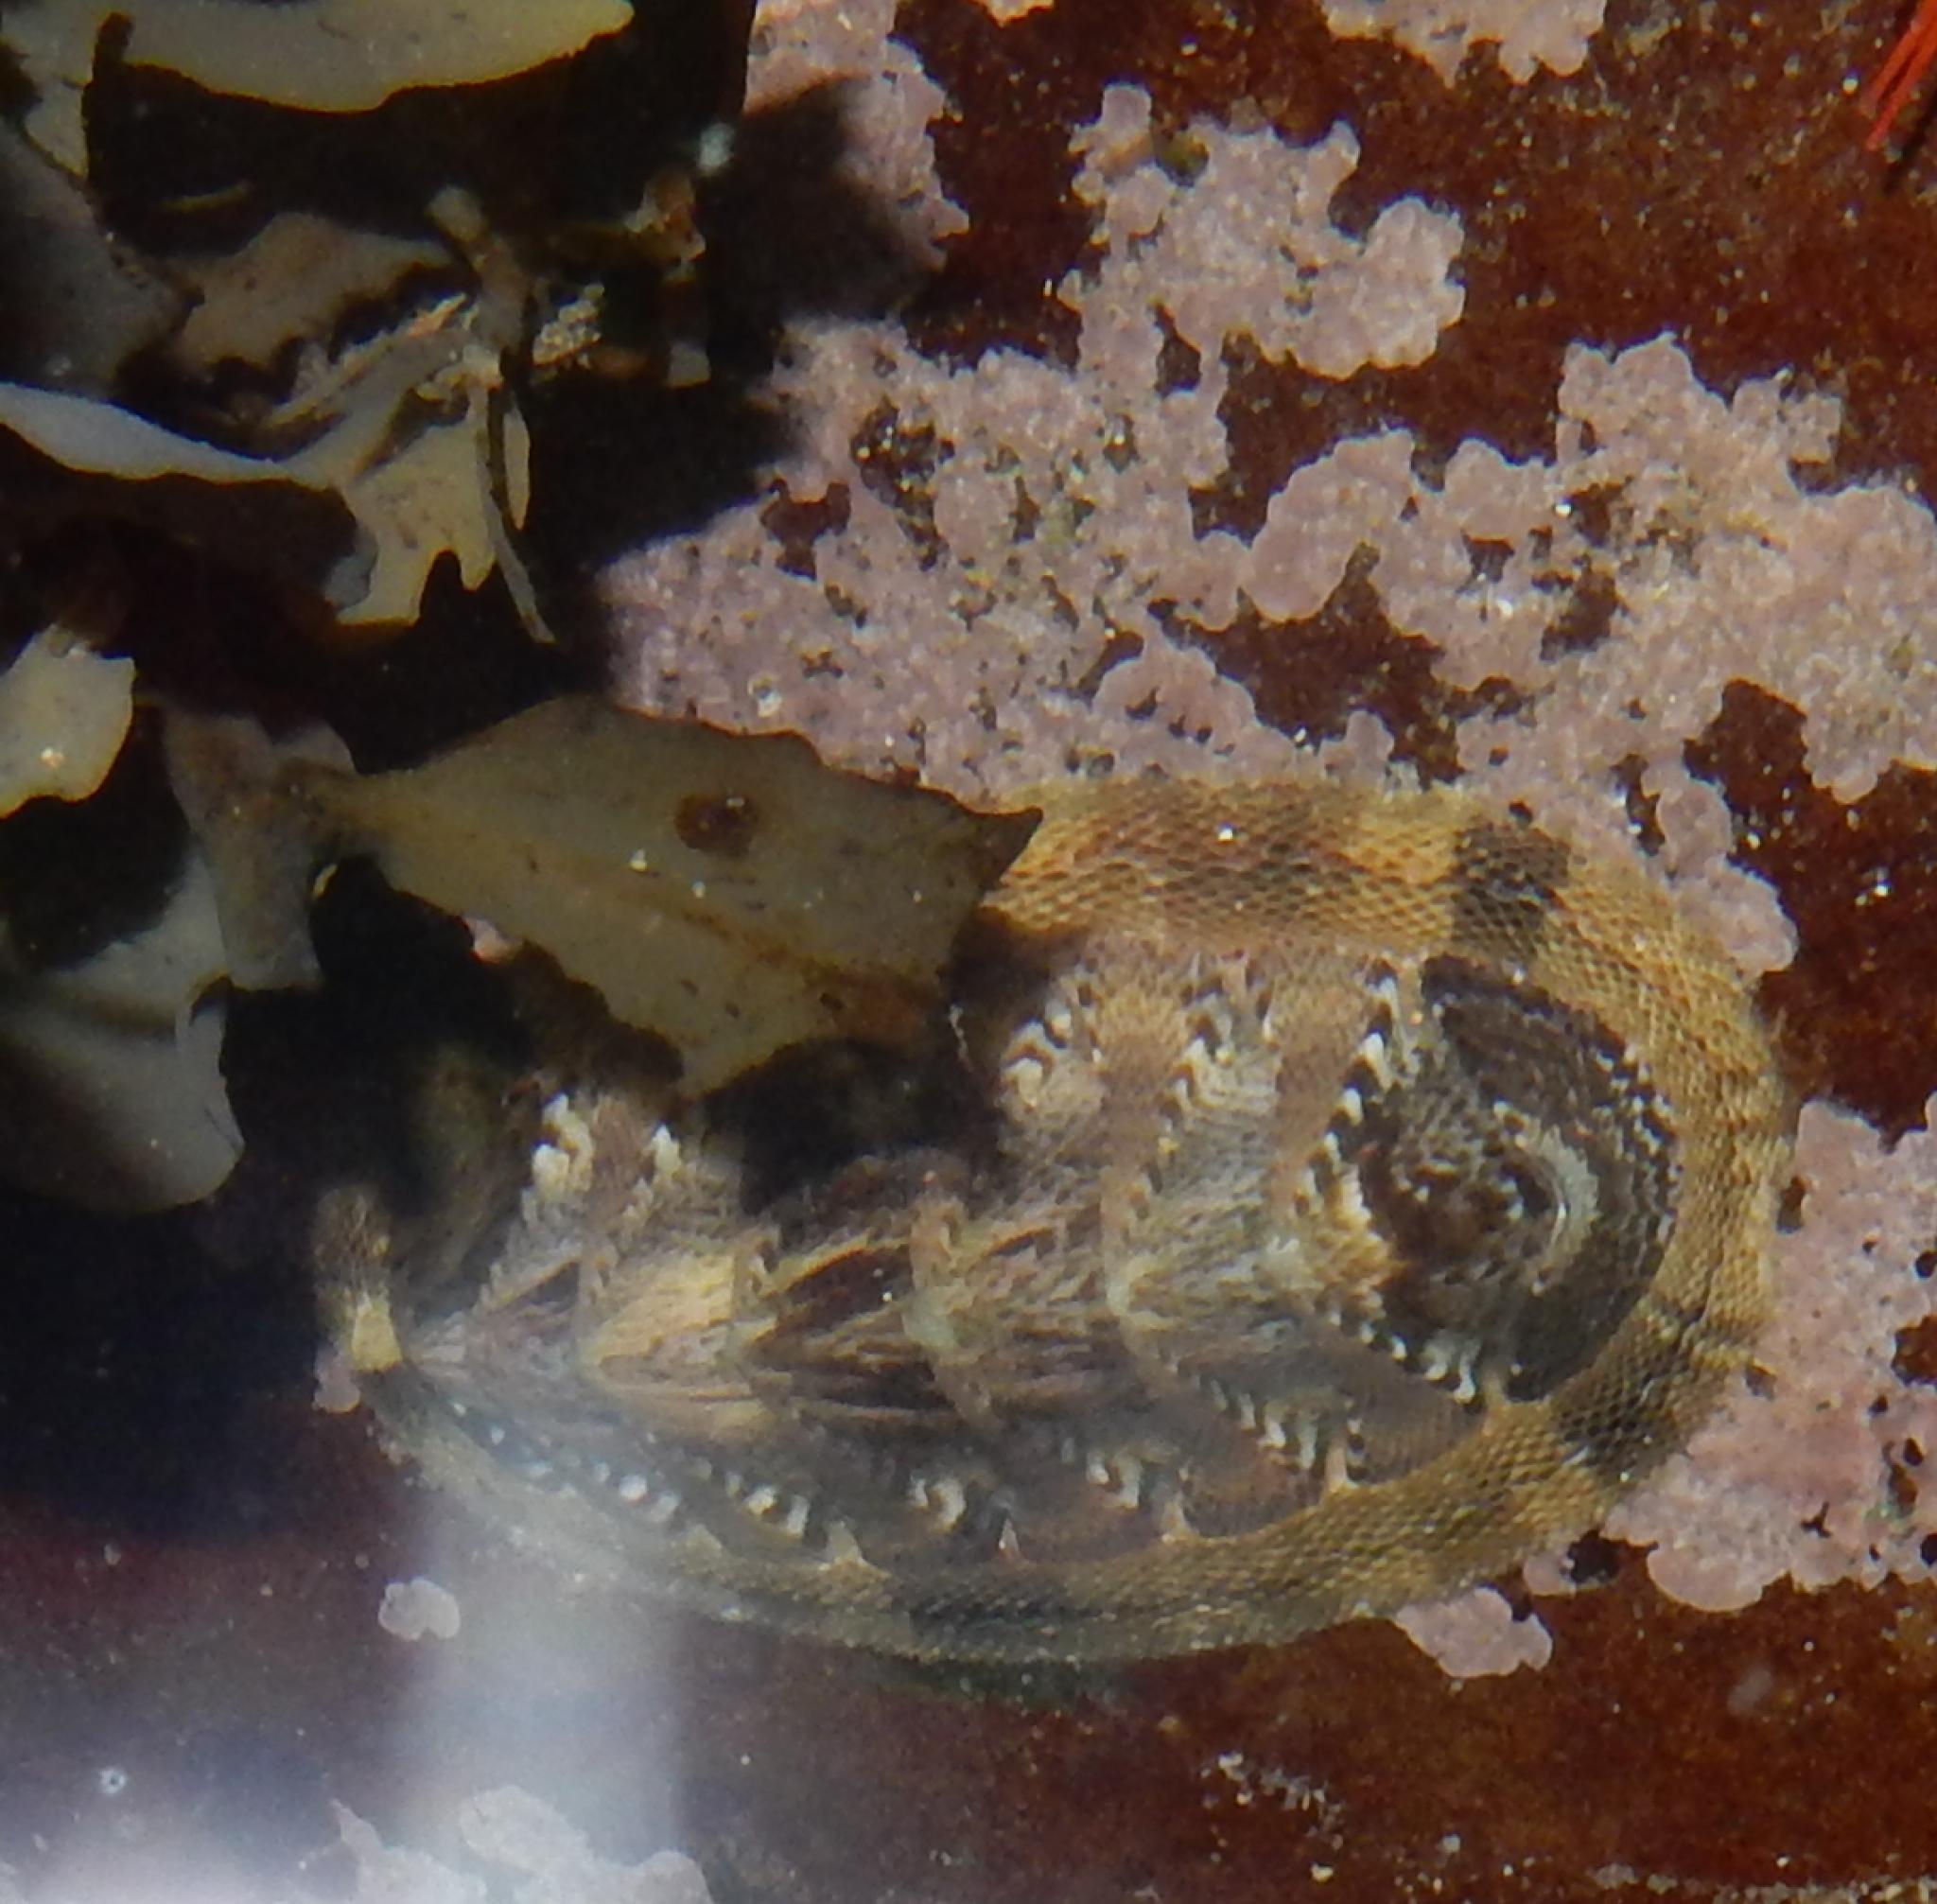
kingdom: Animalia
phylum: Mollusca
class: Polyplacophora
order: Chitonida
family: Chitonidae
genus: Rhyssoplax
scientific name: Rhyssoplax polita
